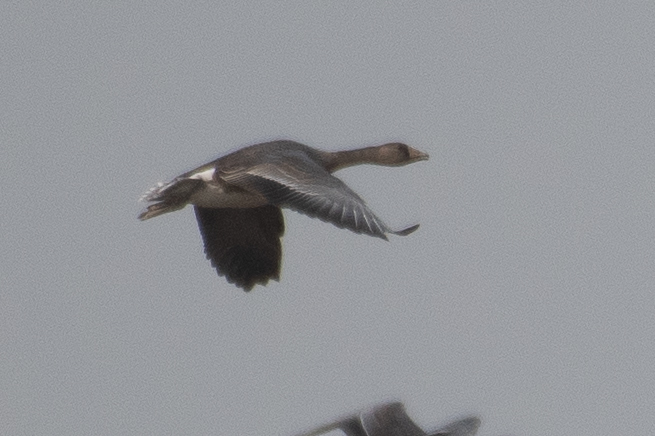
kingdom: Animalia
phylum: Chordata
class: Aves
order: Anseriformes
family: Anatidae
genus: Anser
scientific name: Anser albifrons
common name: Greater white-fronted goose
